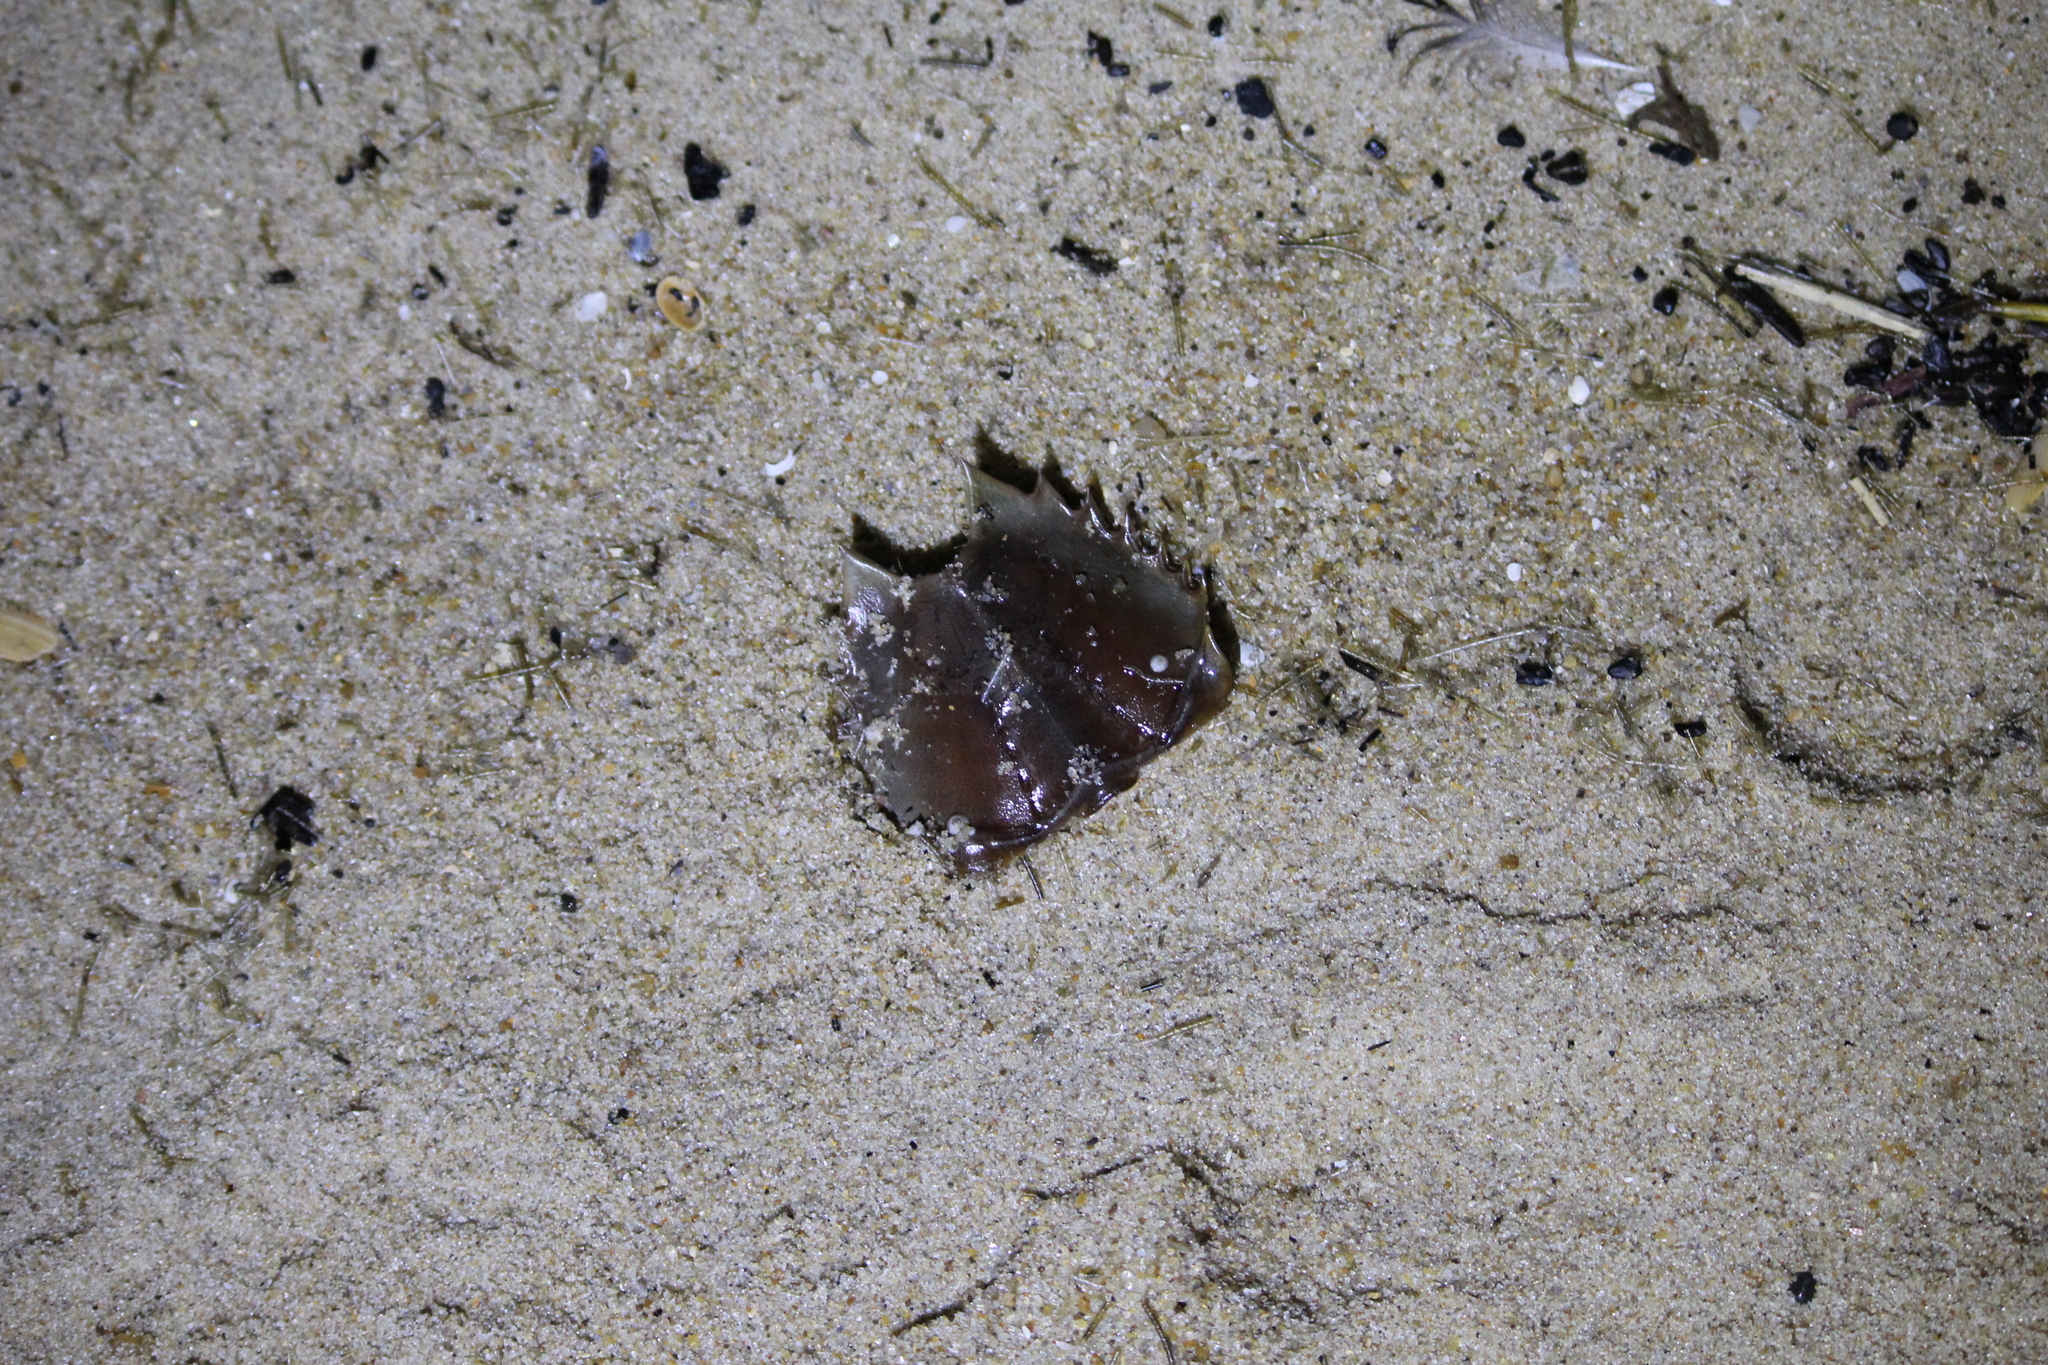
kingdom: Animalia
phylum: Arthropoda
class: Merostomata
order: Xiphosurida
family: Limulidae
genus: Limulus
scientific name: Limulus polyphemus
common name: Horseshoe crab
